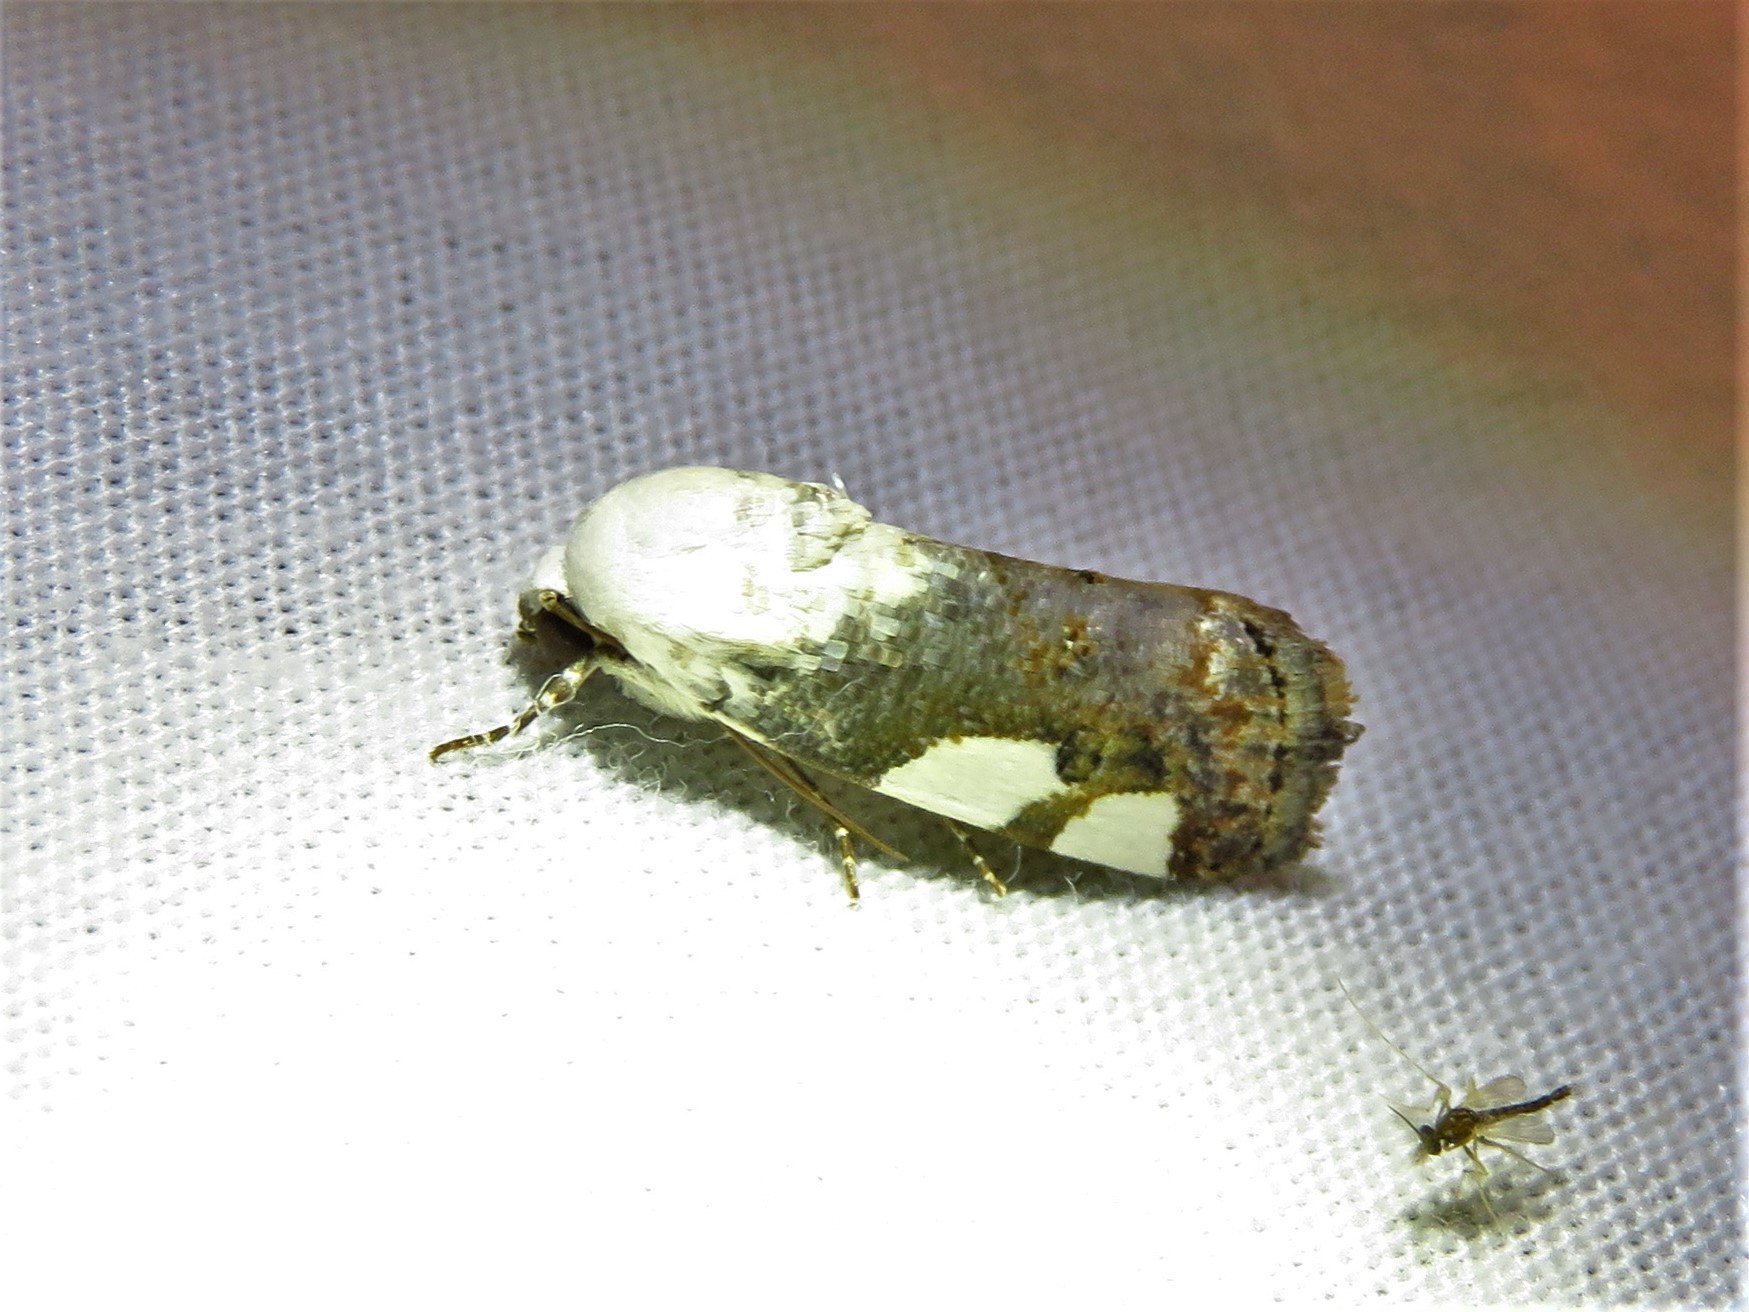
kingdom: Animalia
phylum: Arthropoda
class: Insecta
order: Lepidoptera
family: Noctuidae
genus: Acontia
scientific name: Acontia quadriplaga
